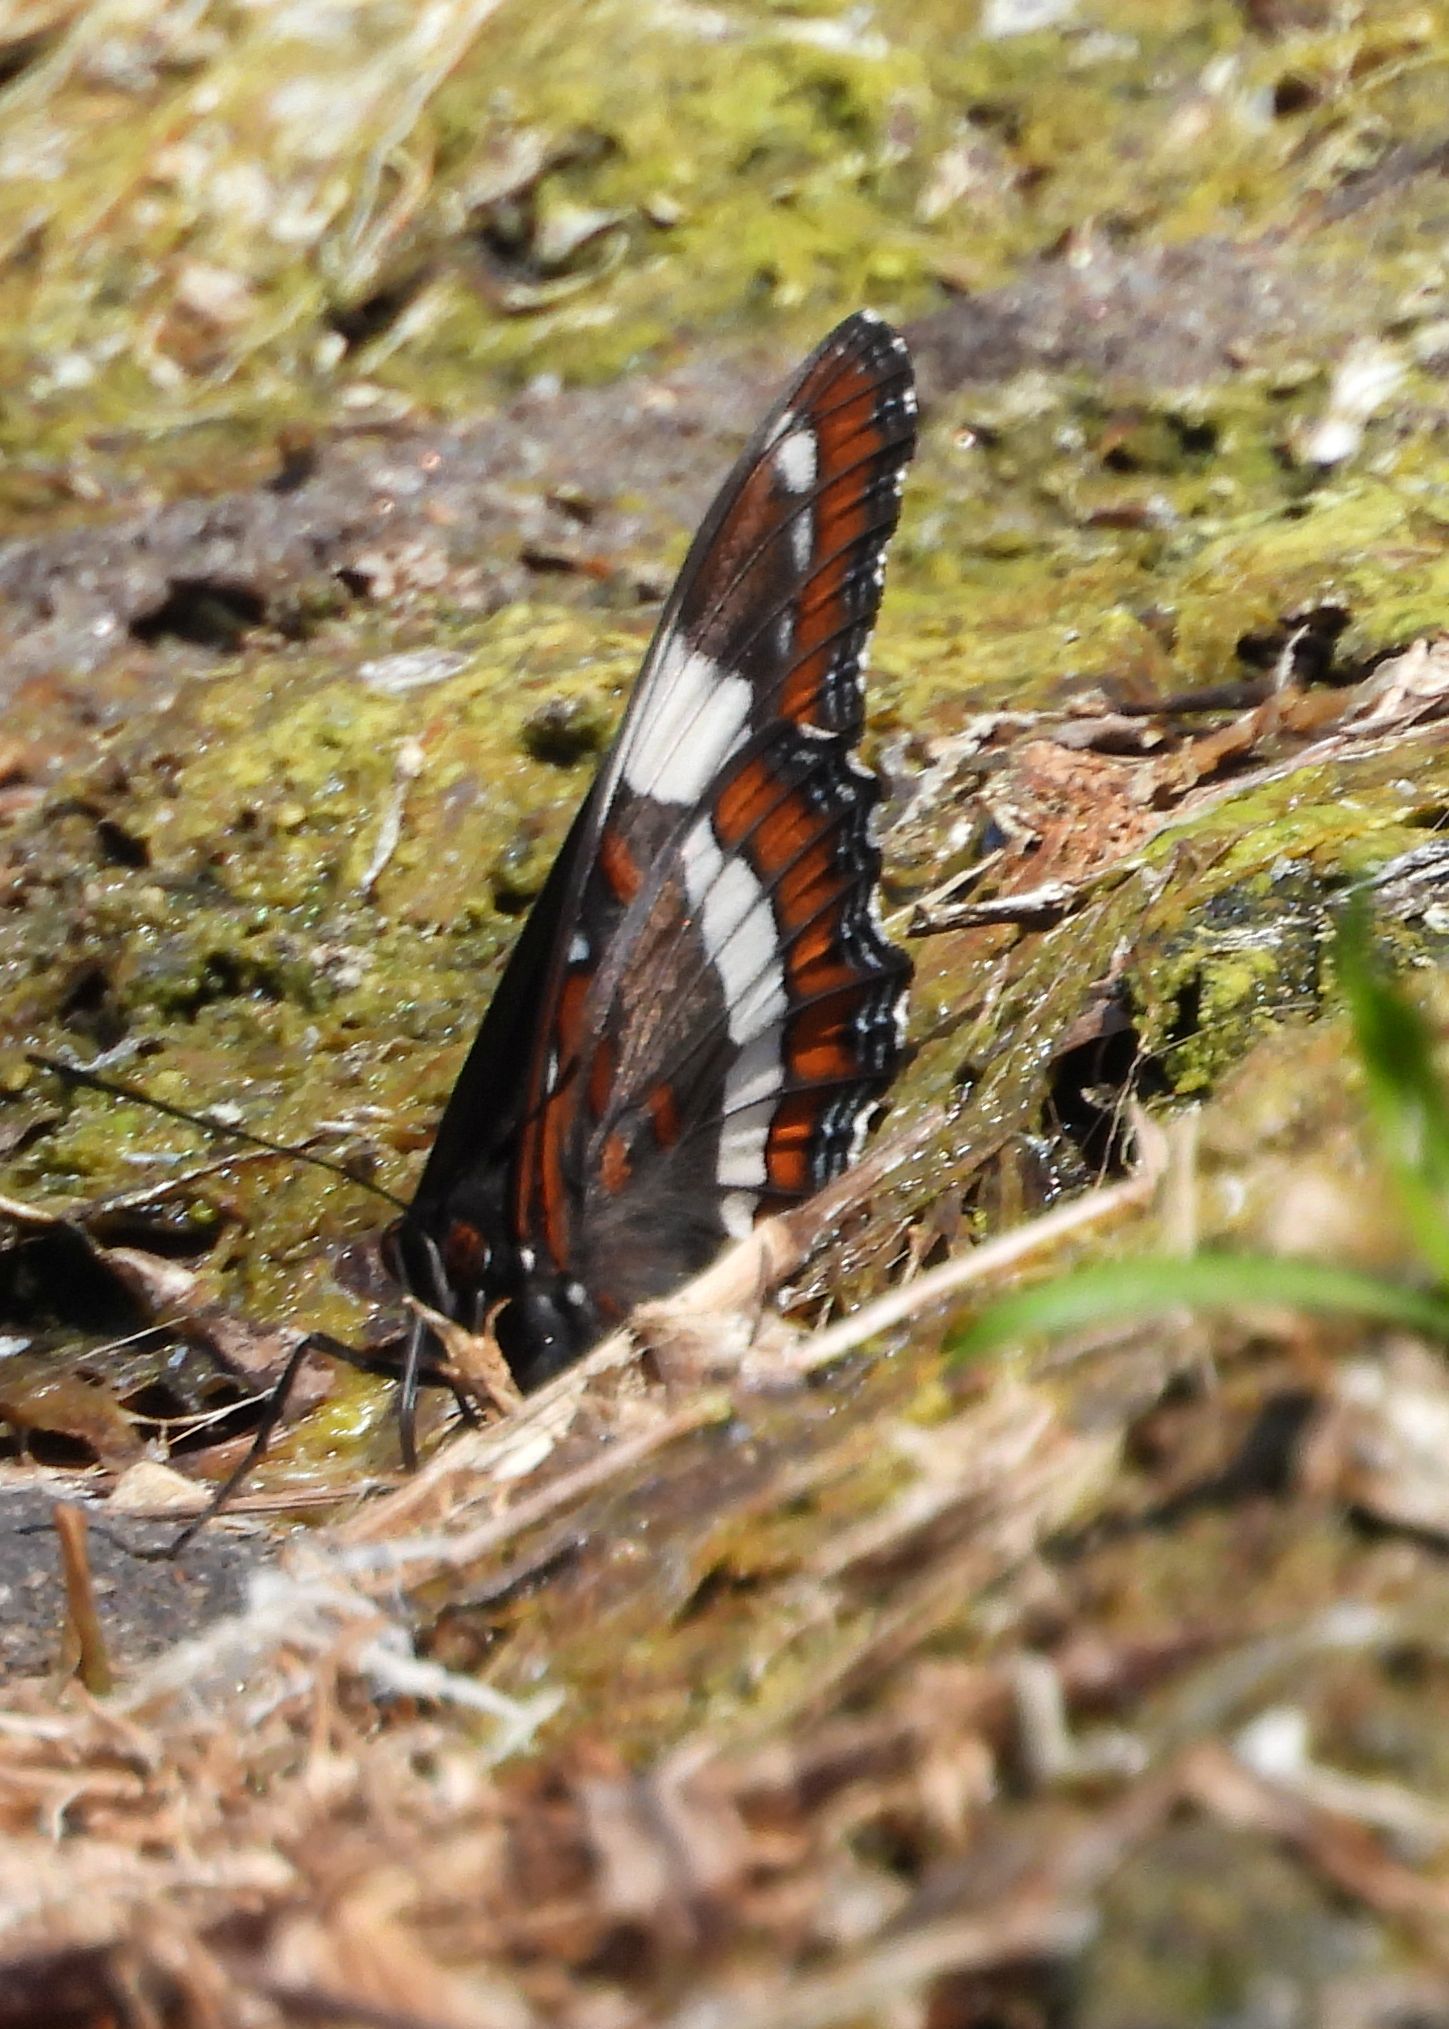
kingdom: Animalia
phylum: Arthropoda
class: Insecta
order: Lepidoptera
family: Nymphalidae
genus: Limenitis
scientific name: Limenitis arthemis
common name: Red-spotted admiral
